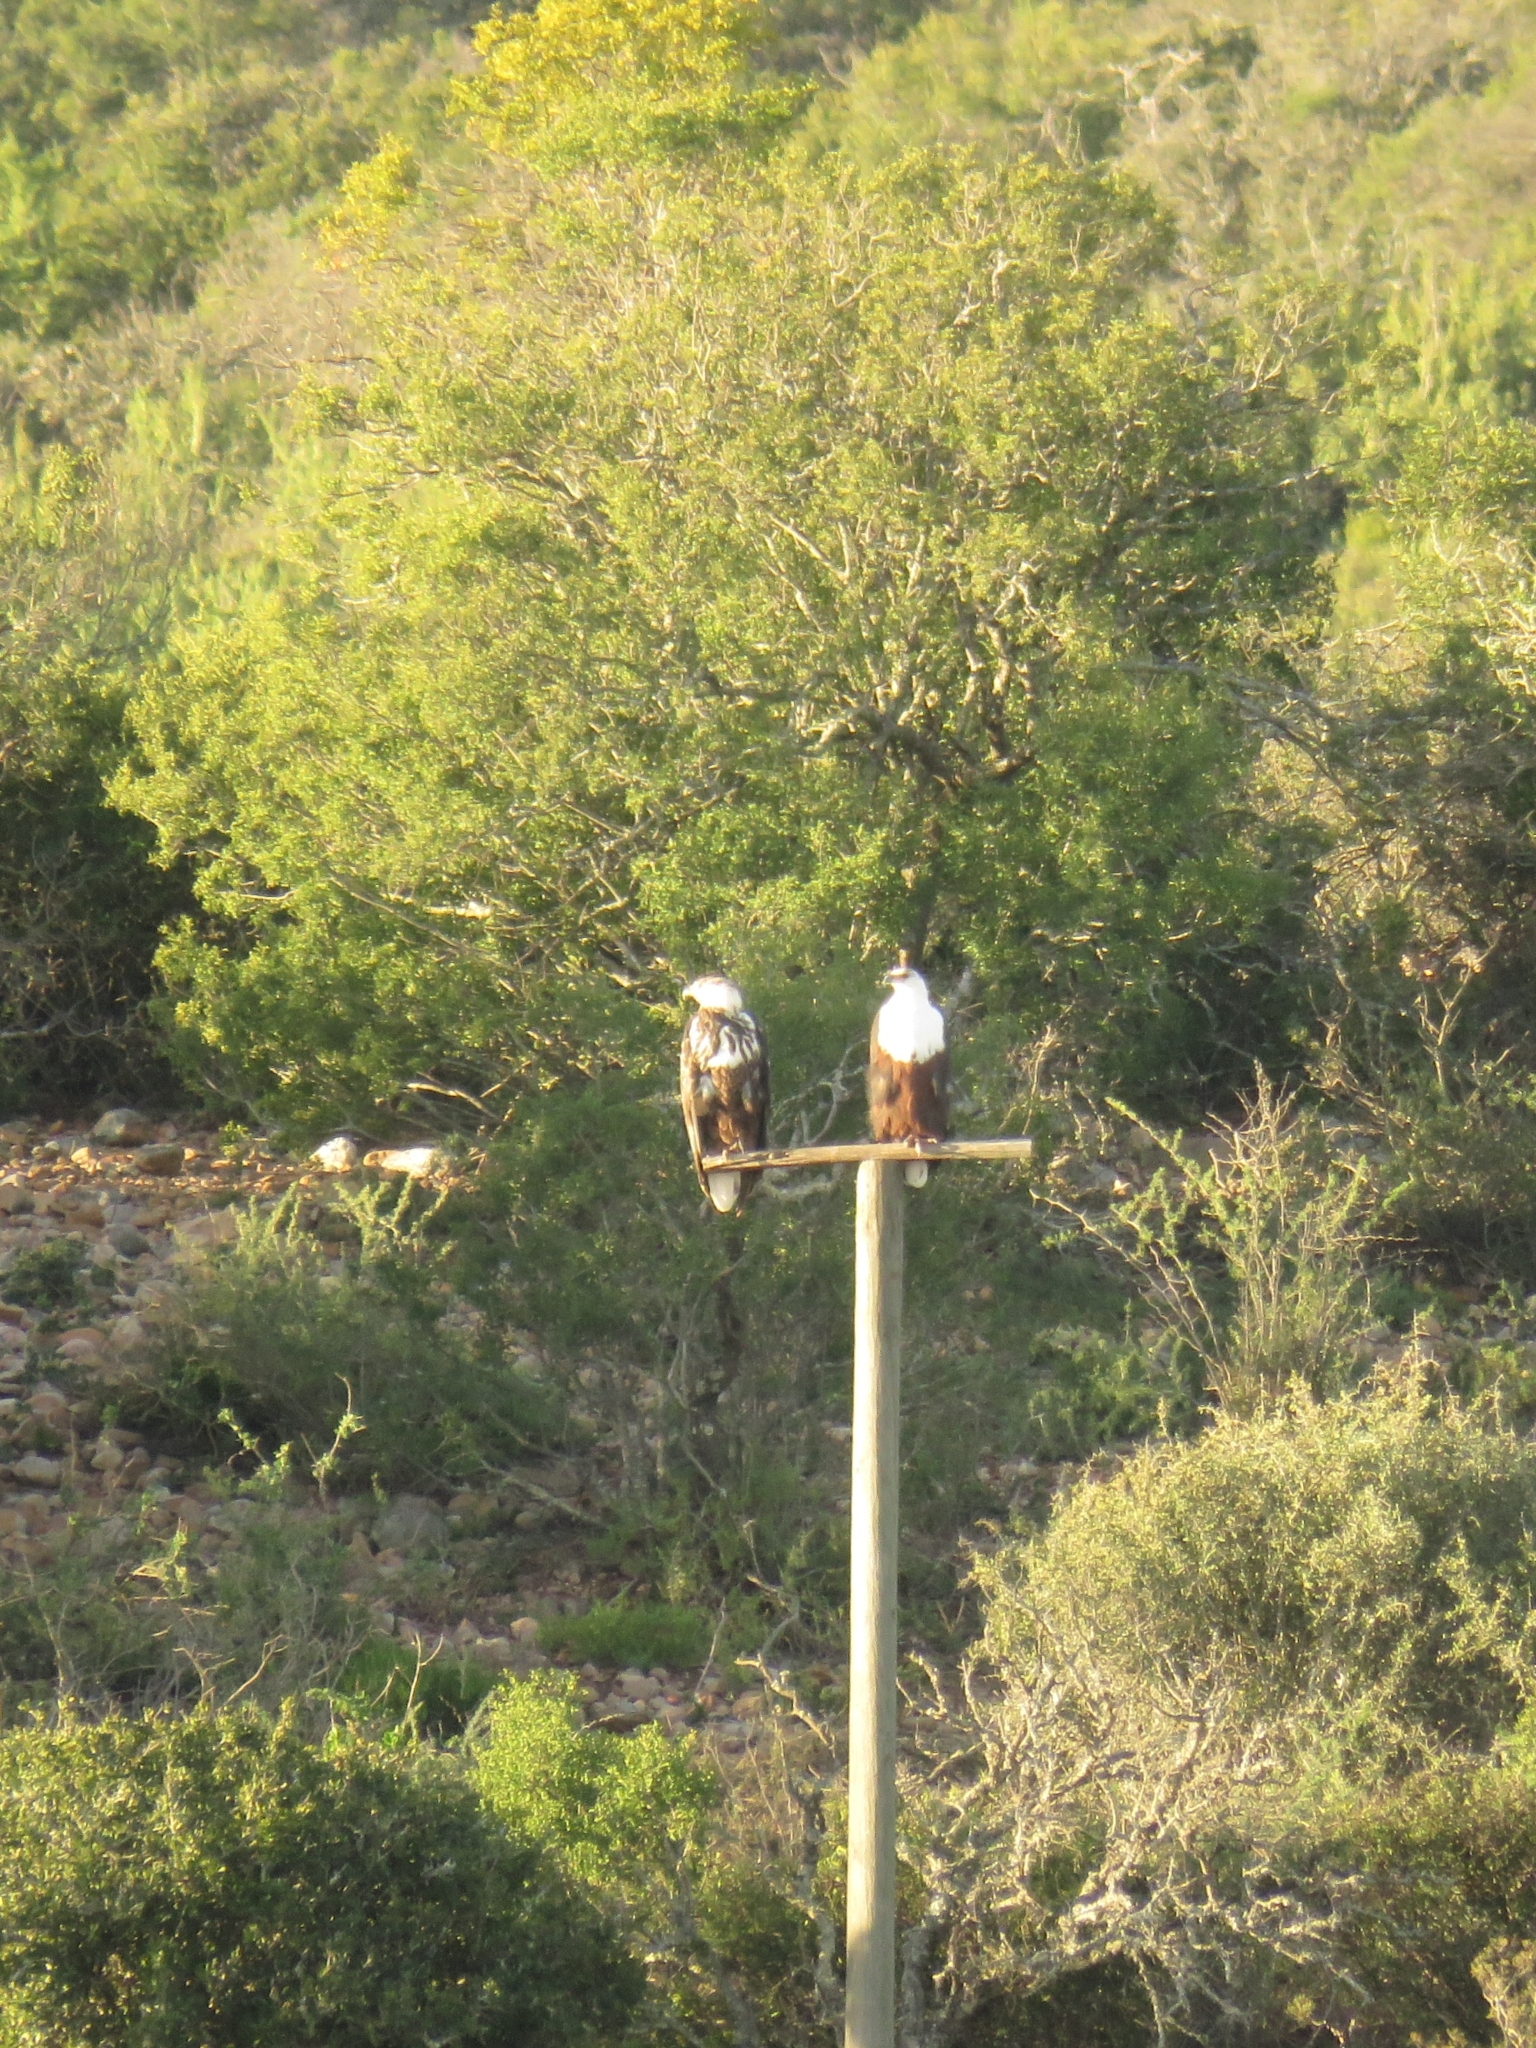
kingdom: Animalia
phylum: Chordata
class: Aves
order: Accipitriformes
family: Accipitridae
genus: Haliaeetus
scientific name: Haliaeetus vocifer
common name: African fish eagle
